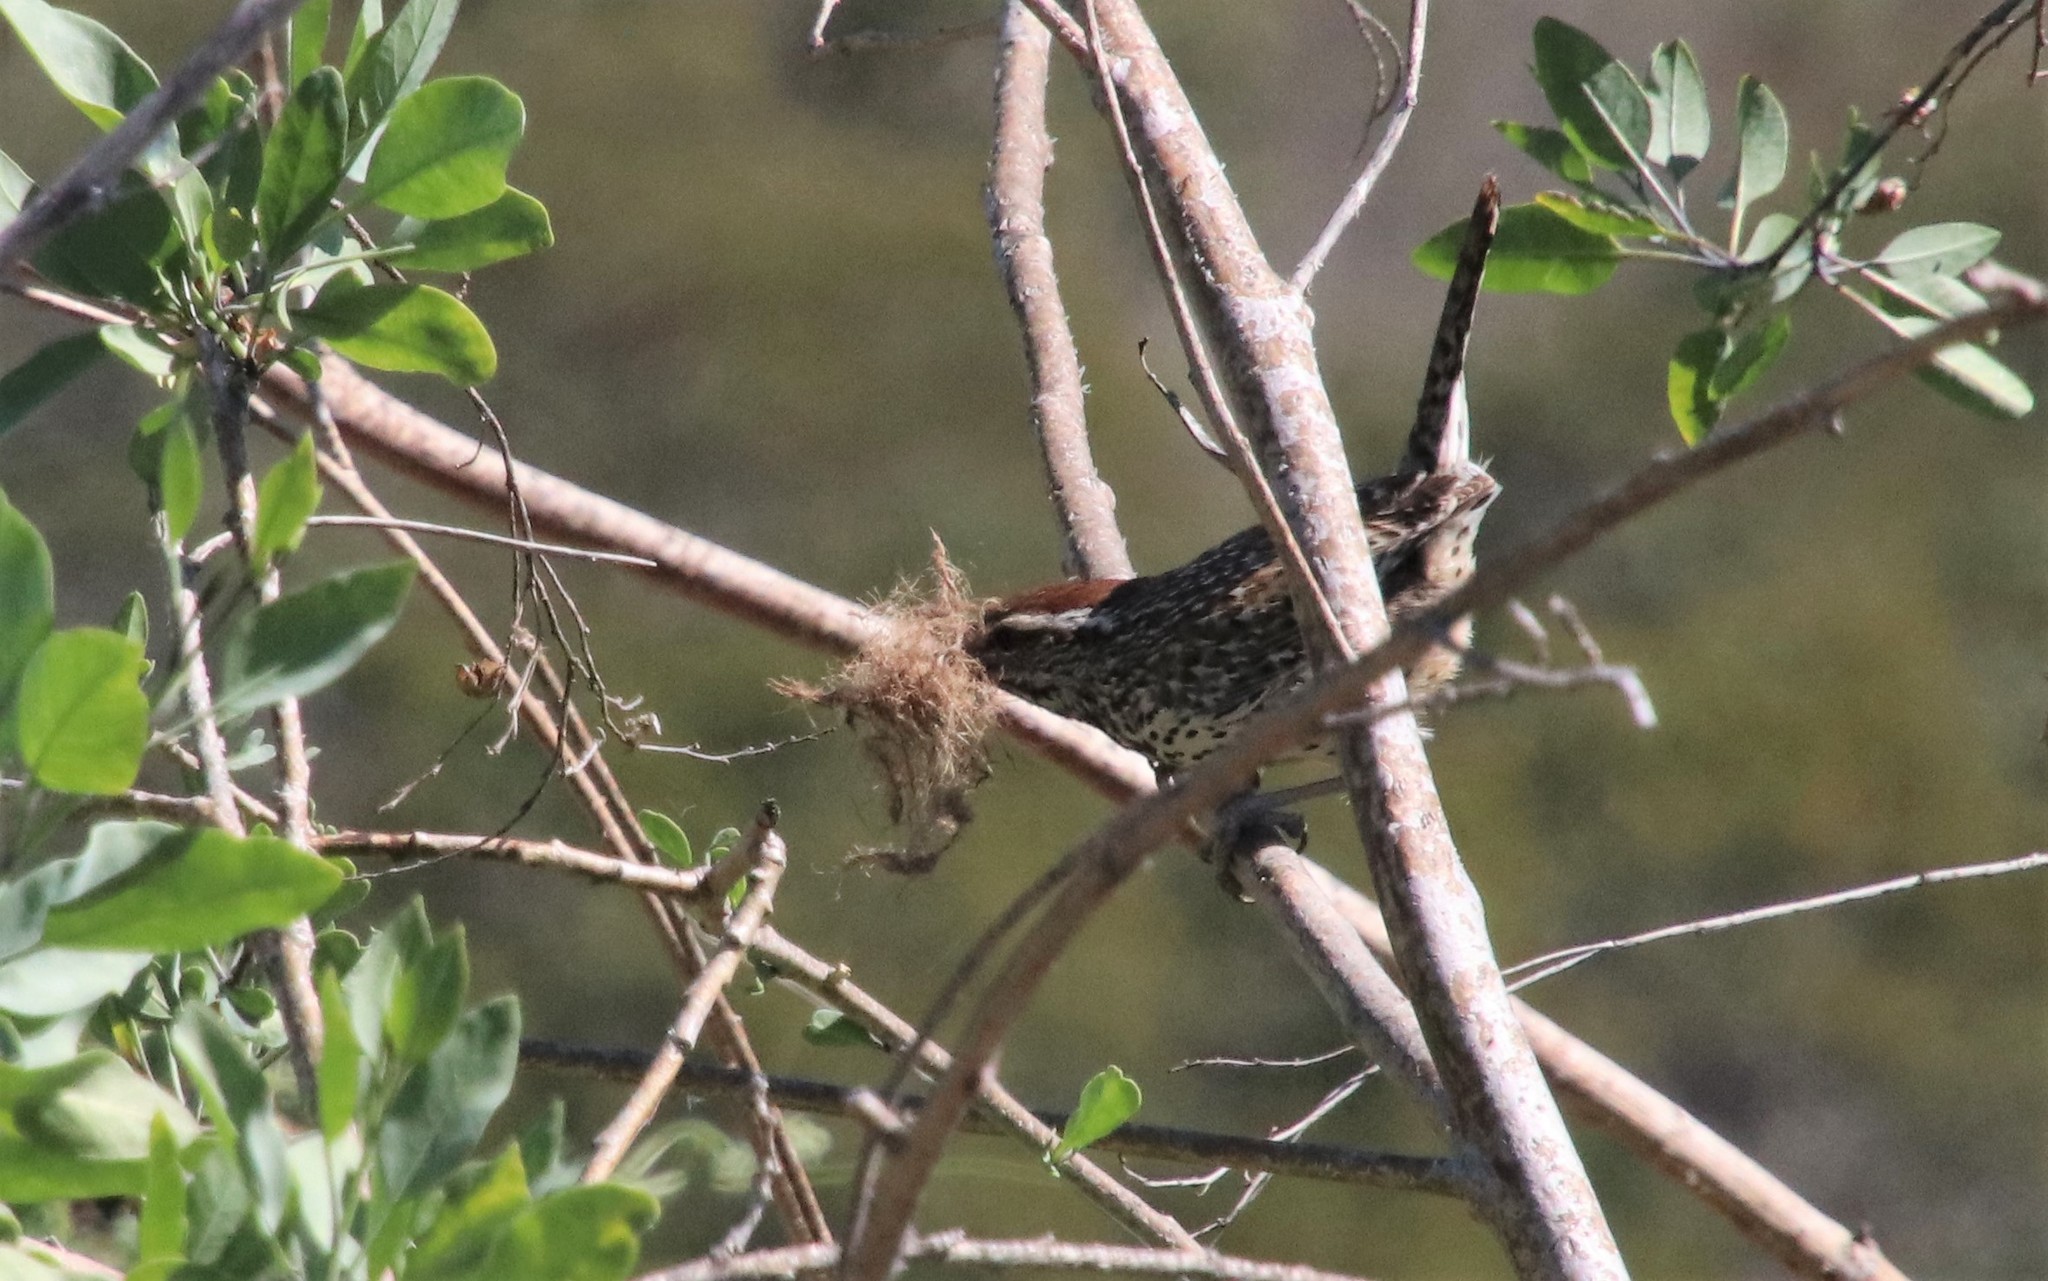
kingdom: Animalia
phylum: Chordata
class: Aves
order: Passeriformes
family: Troglodytidae
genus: Campylorhynchus
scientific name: Campylorhynchus brunneicapillus
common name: Cactus wren
